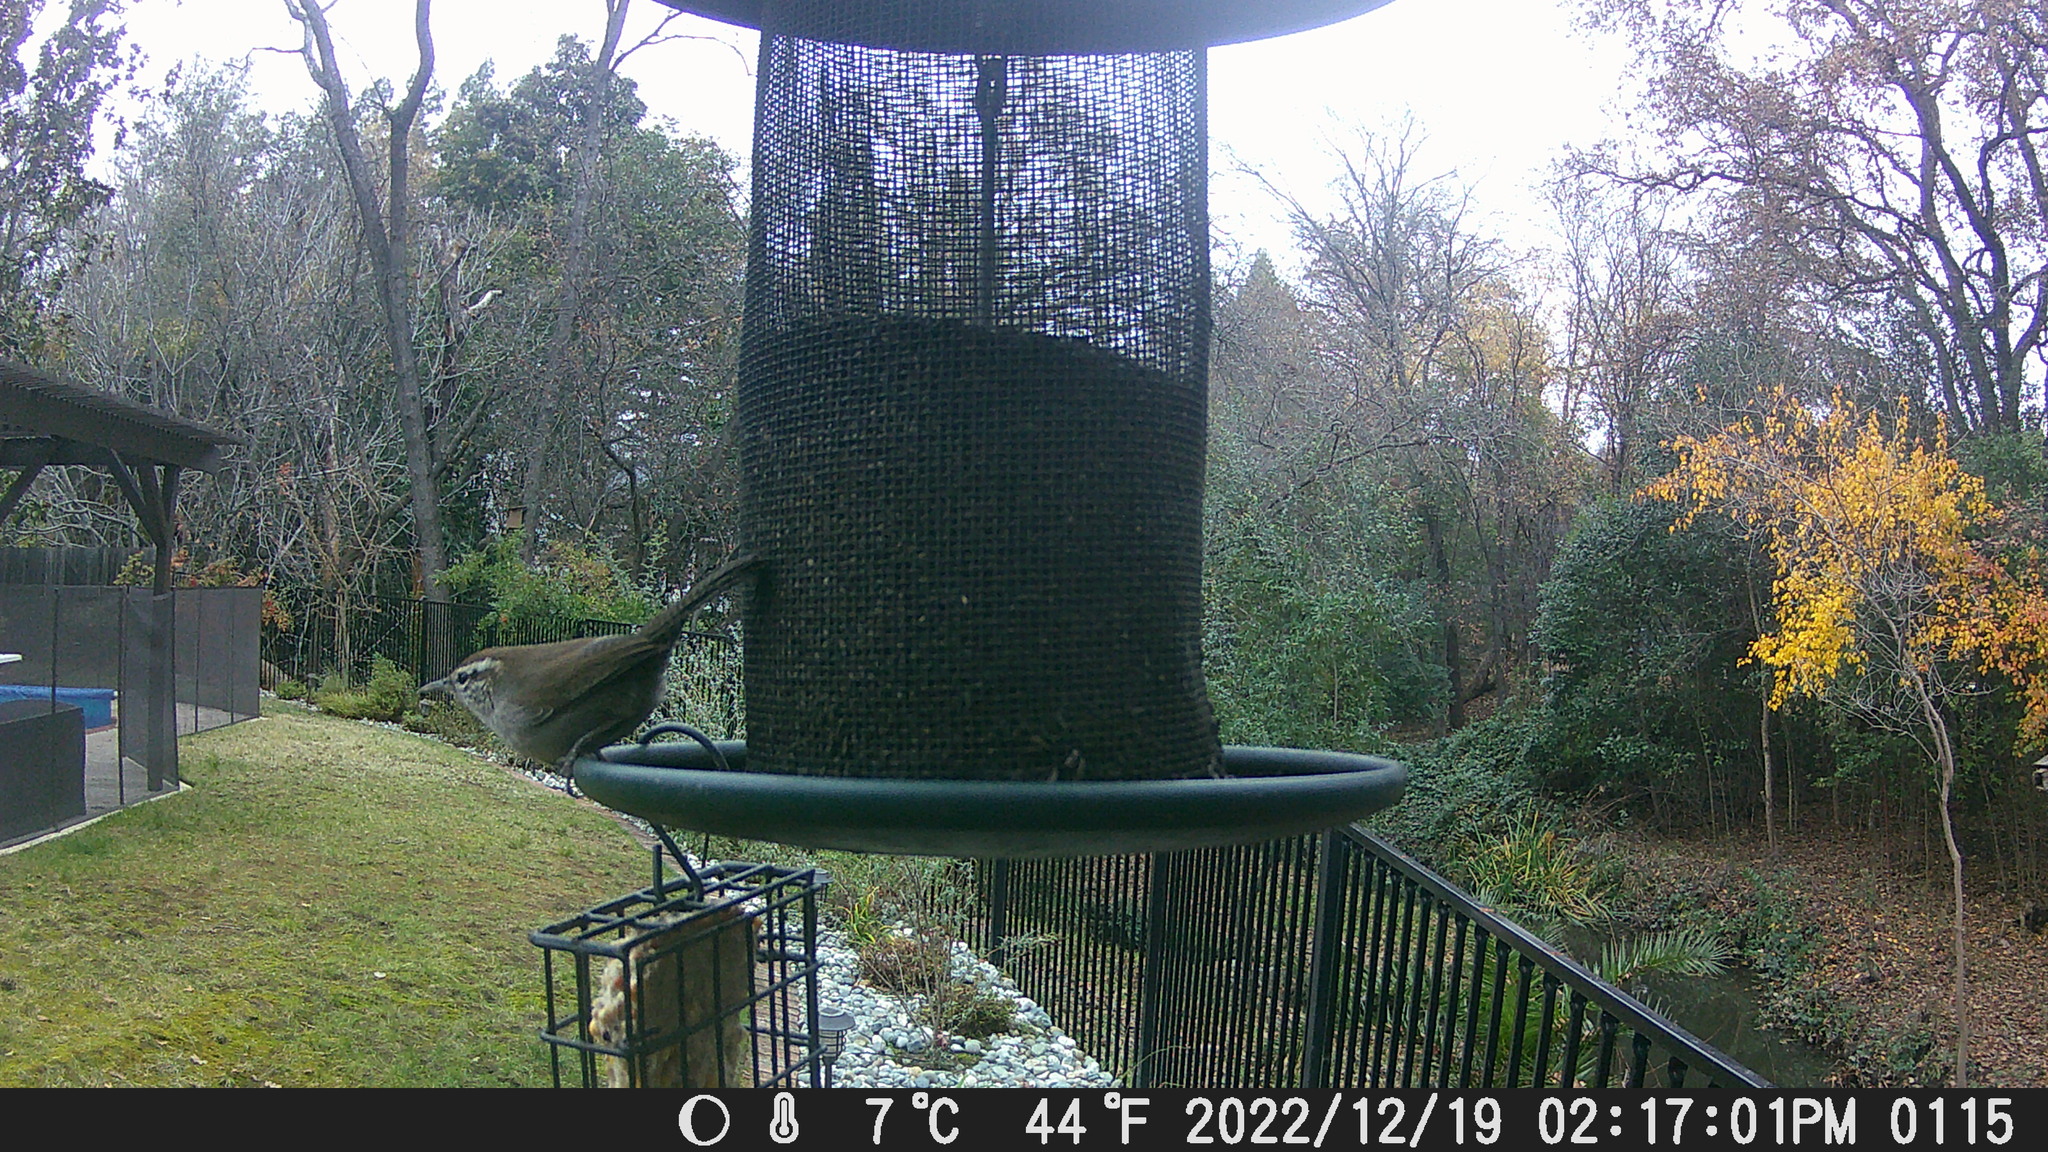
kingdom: Animalia
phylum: Chordata
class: Aves
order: Passeriformes
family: Troglodytidae
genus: Thryomanes
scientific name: Thryomanes bewickii
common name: Bewick's wren
